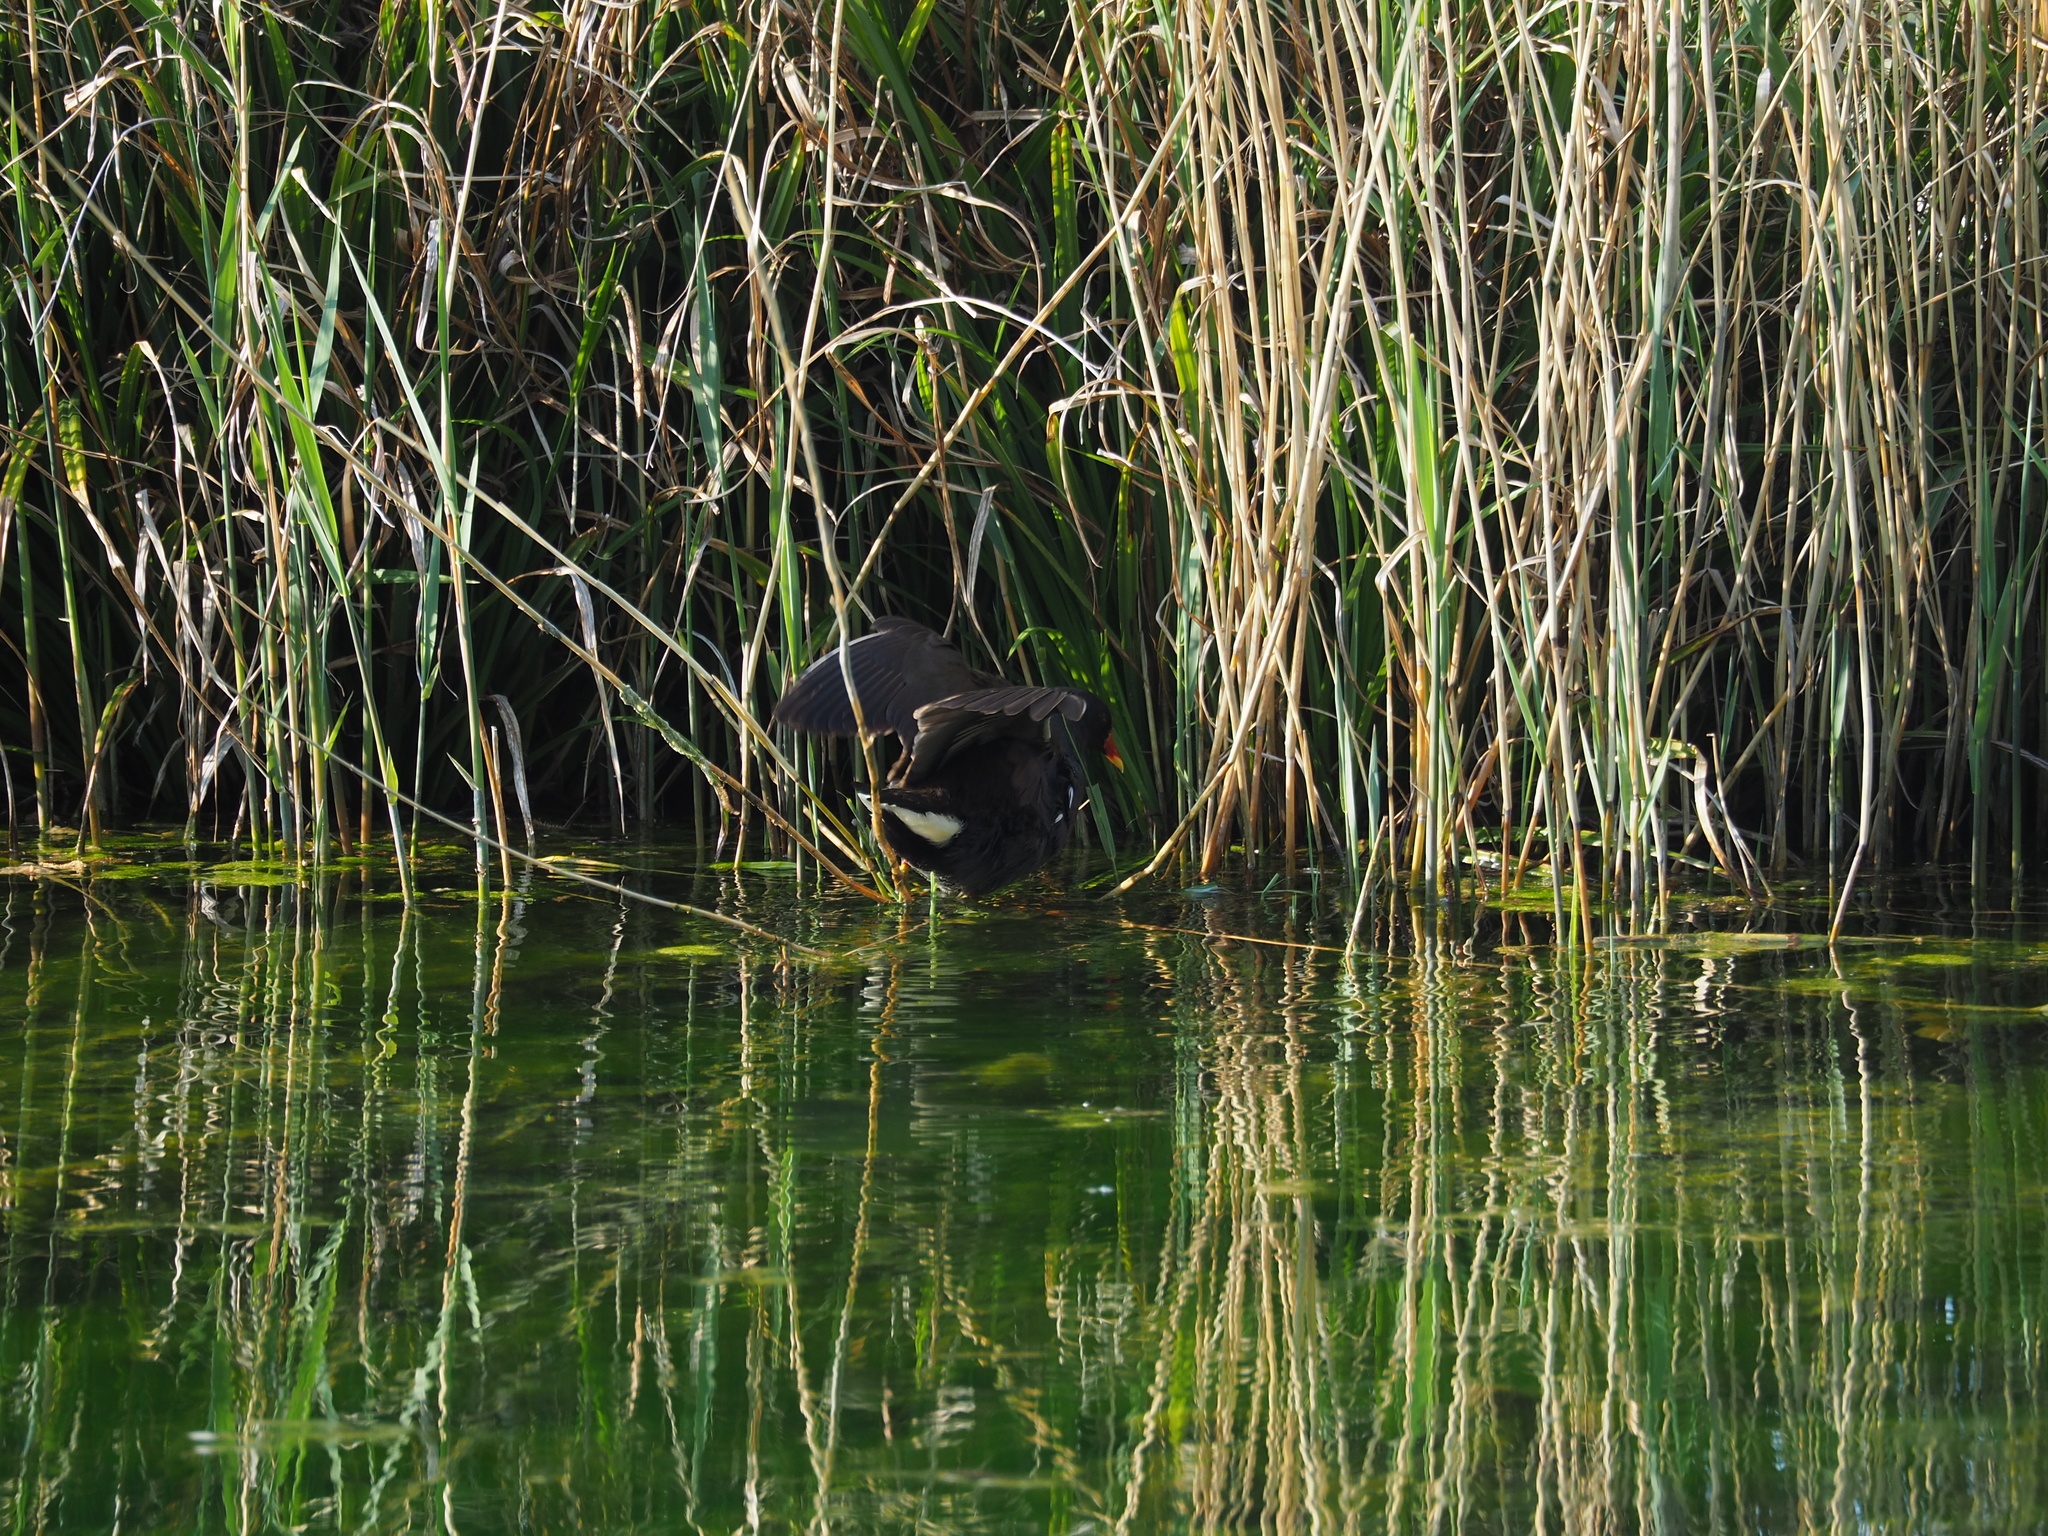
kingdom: Animalia
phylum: Chordata
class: Aves
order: Gruiformes
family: Rallidae
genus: Gallinula
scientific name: Gallinula chloropus
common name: Common moorhen
